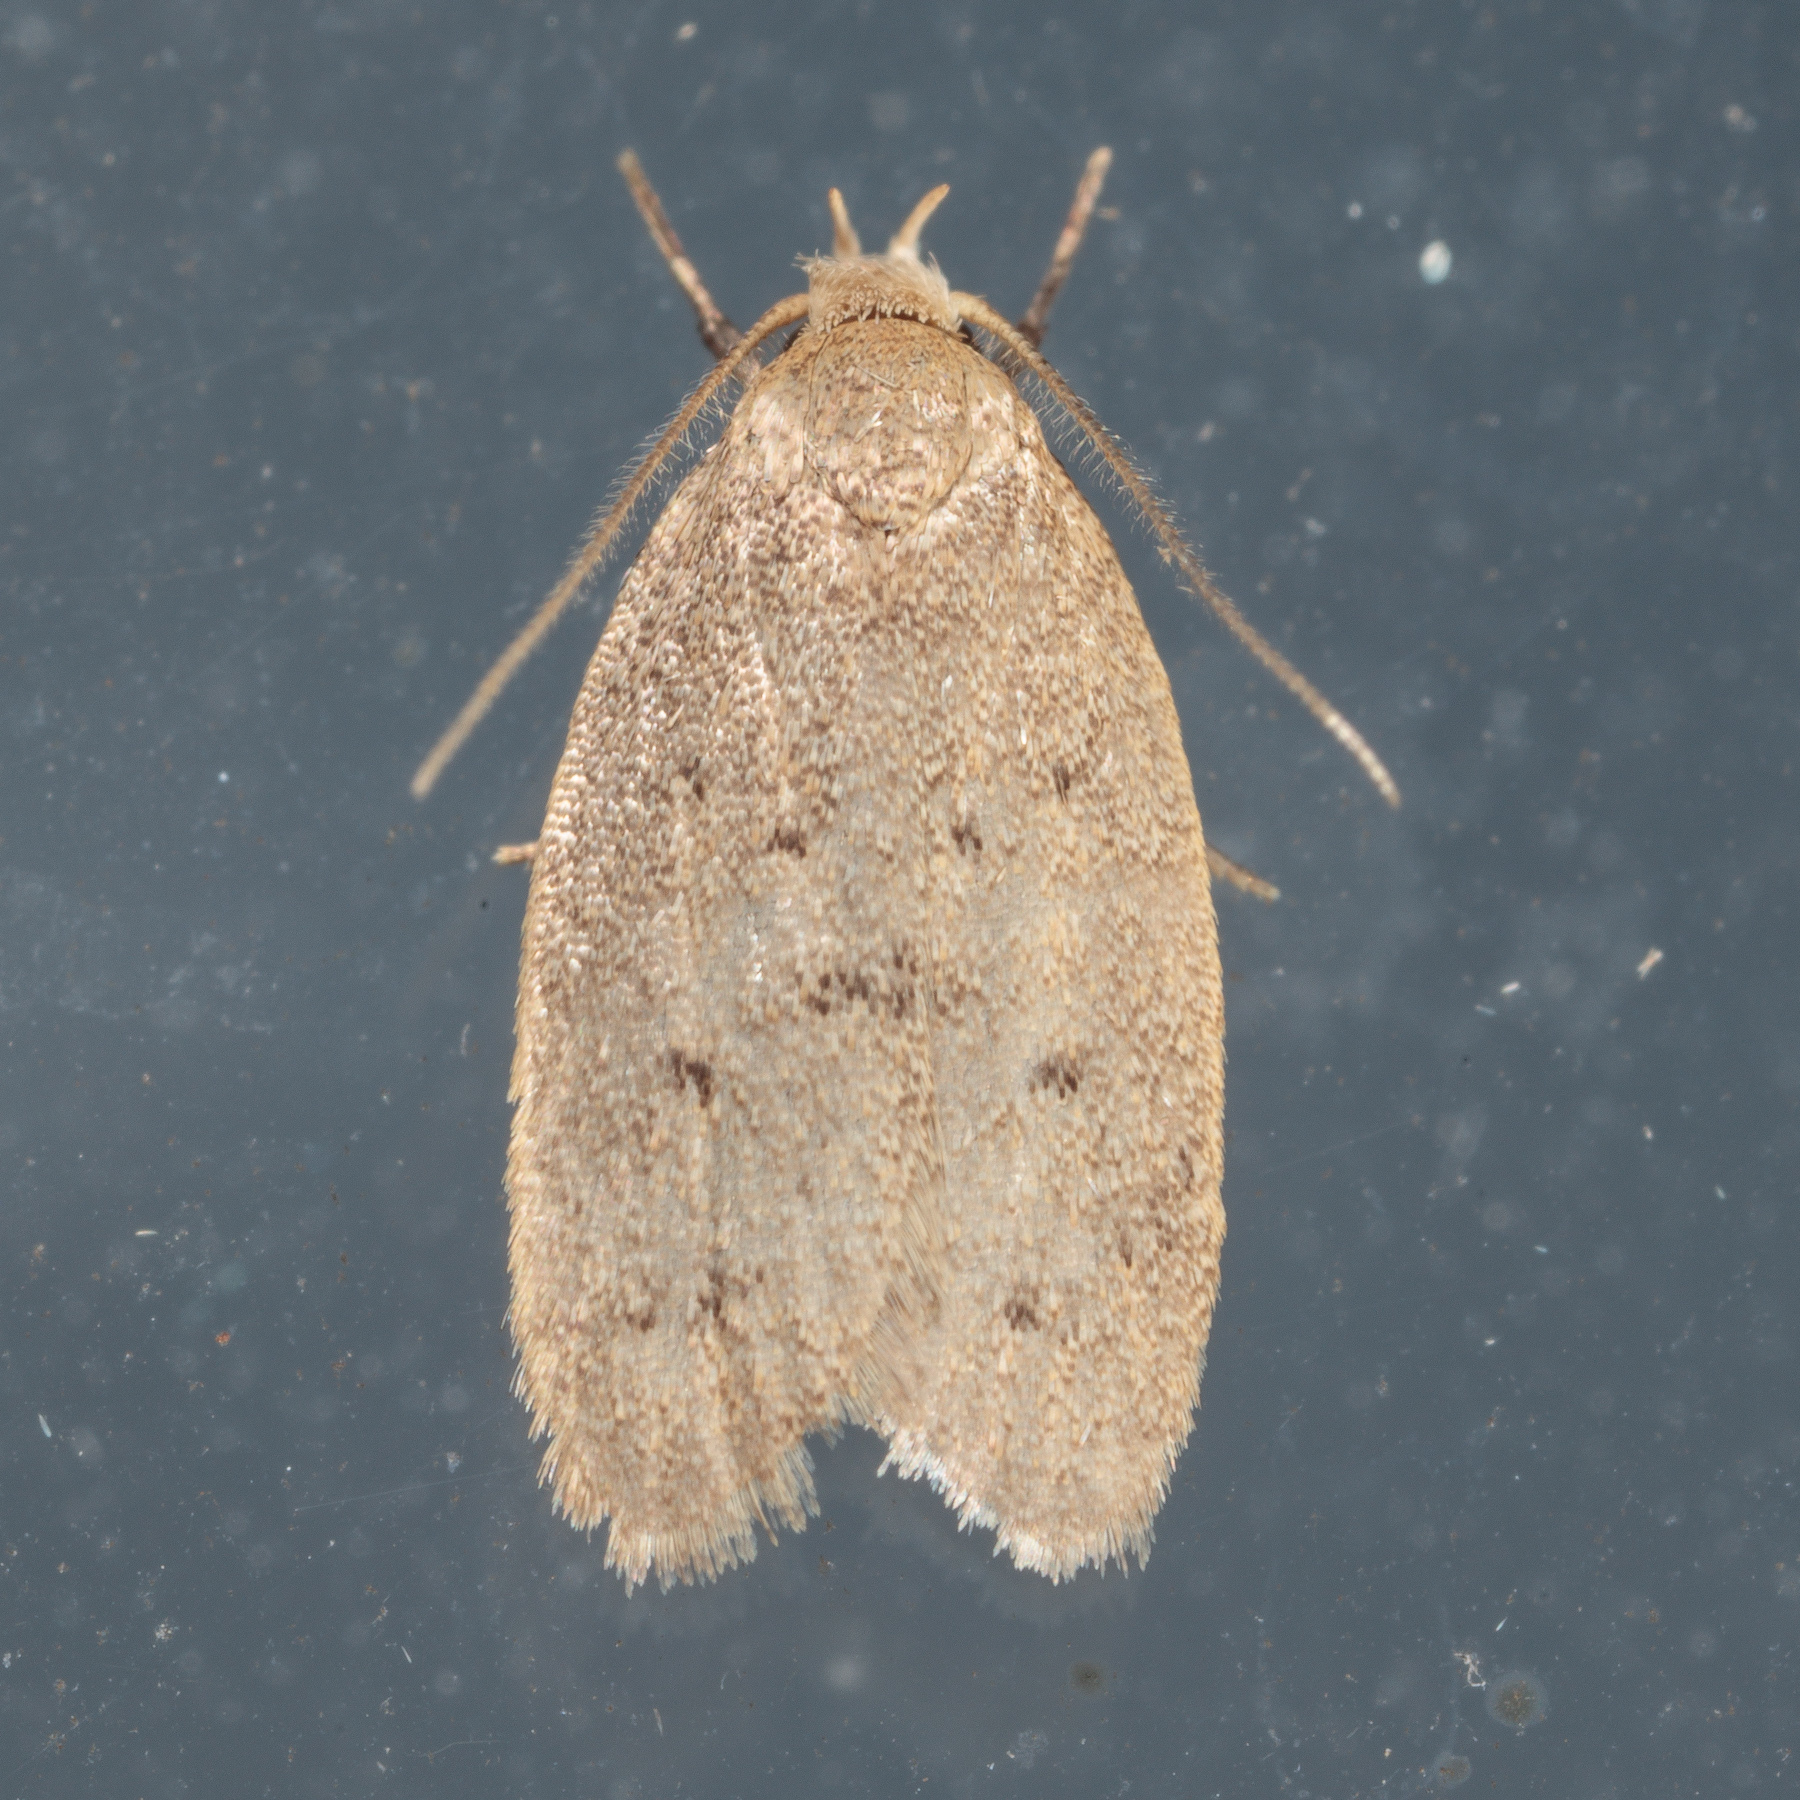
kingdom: Animalia
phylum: Arthropoda
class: Insecta
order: Lepidoptera
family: Oecophoridae
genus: Inga
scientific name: Inga obscuromaculella
